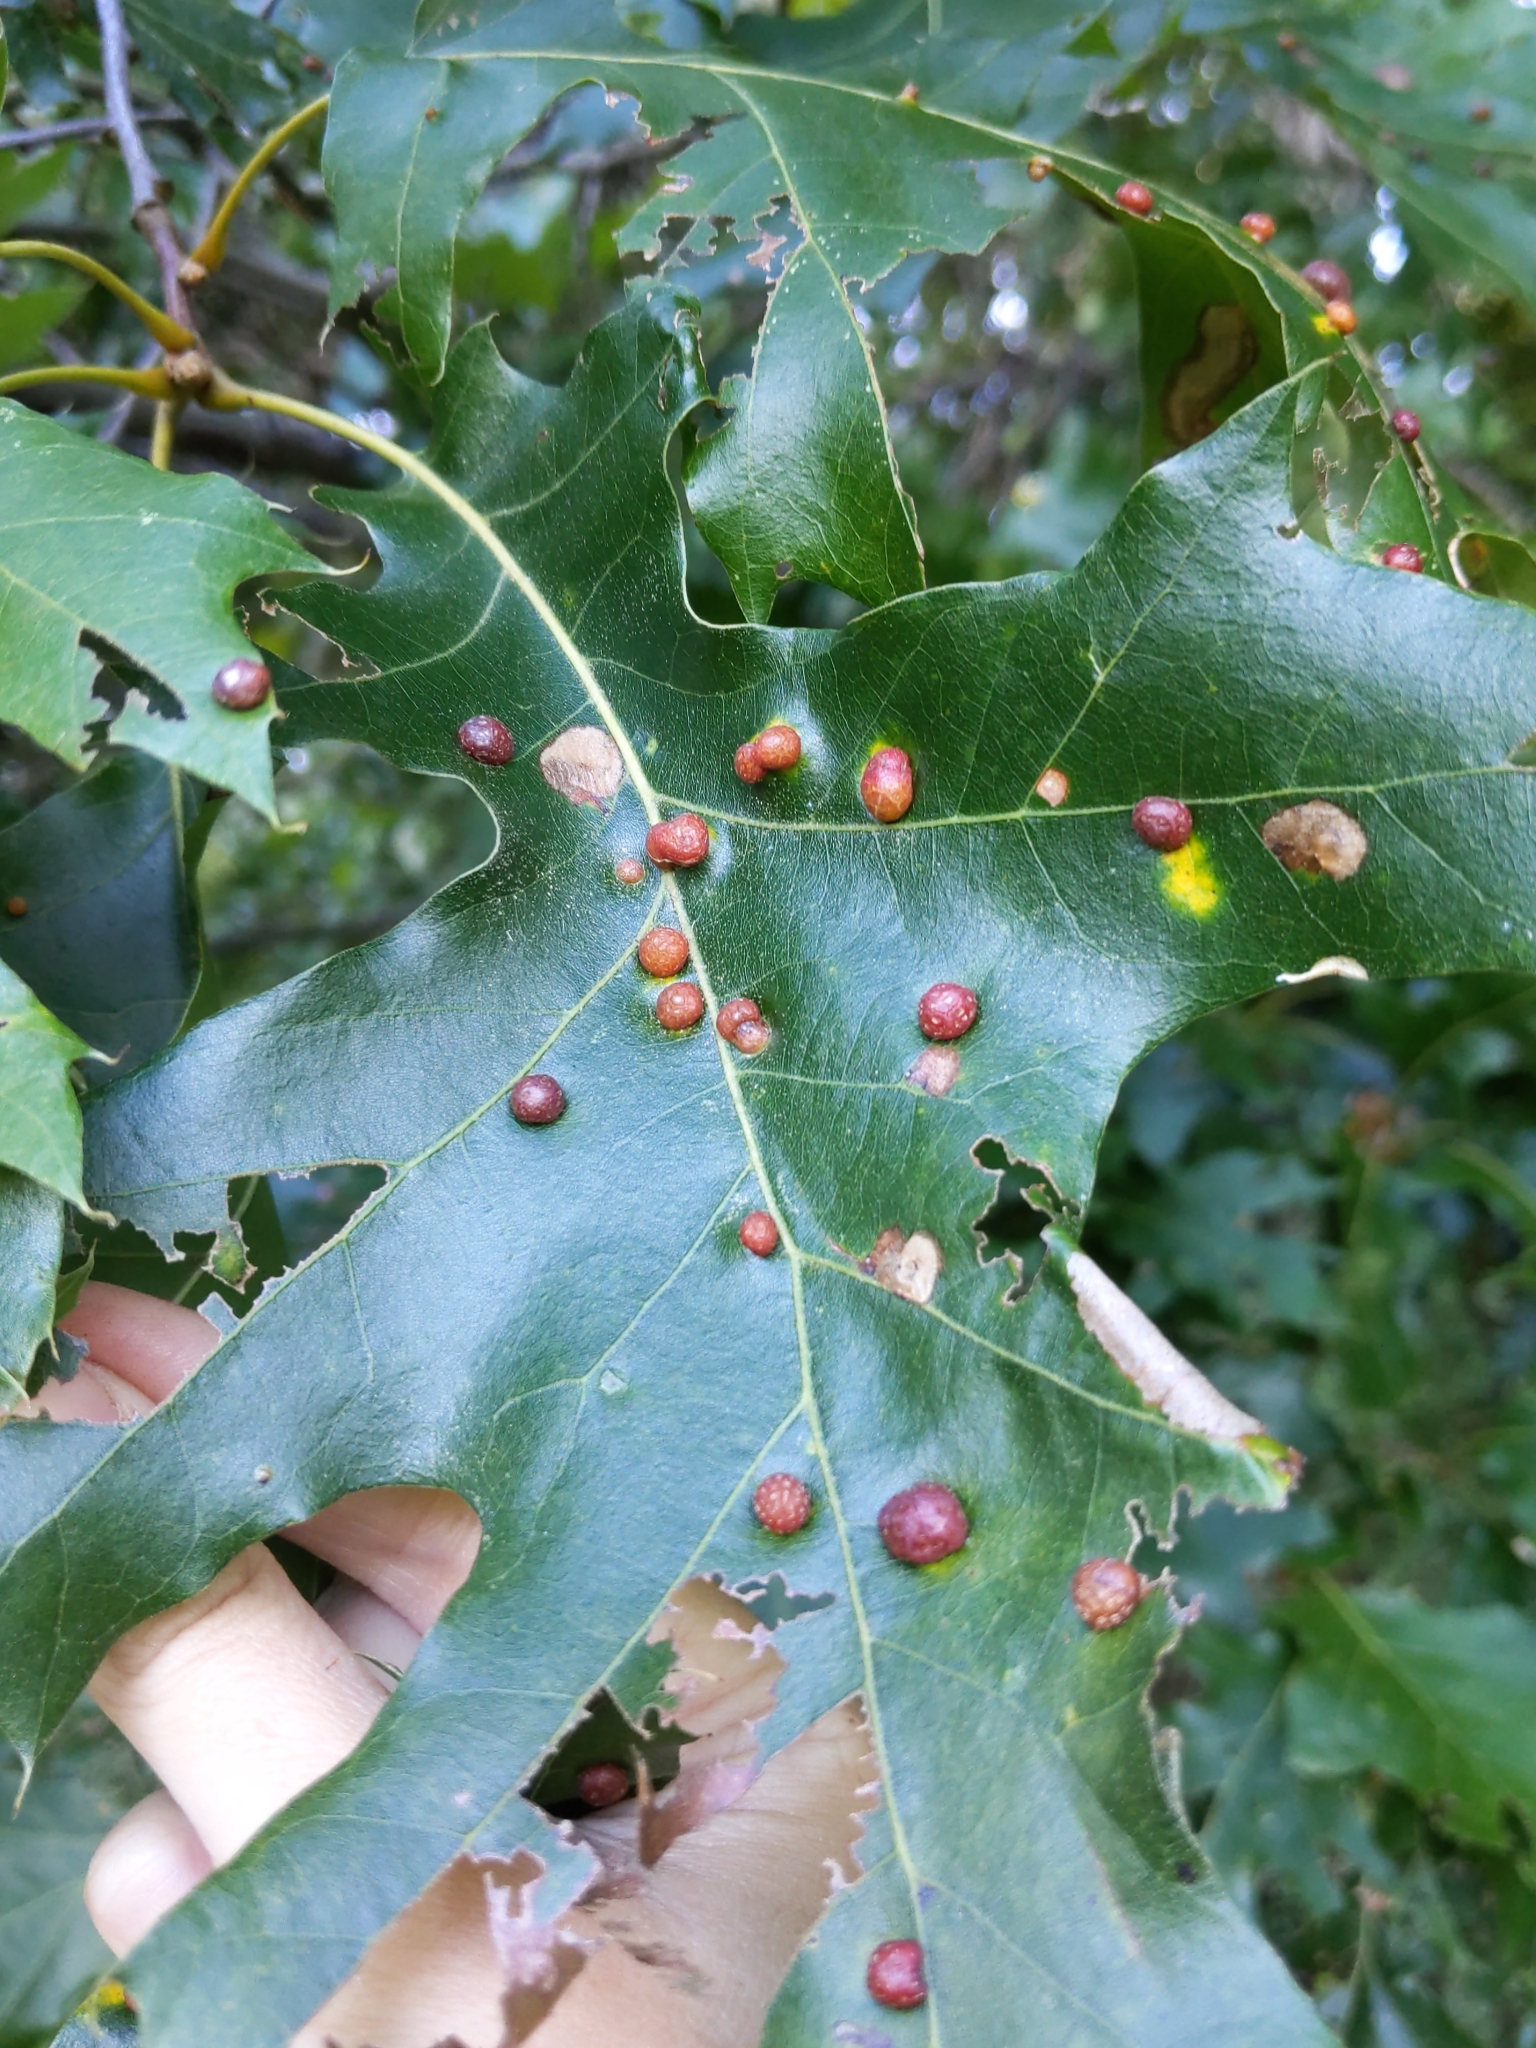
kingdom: Animalia
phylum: Arthropoda
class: Insecta
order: Diptera
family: Cecidomyiidae
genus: Polystepha
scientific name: Polystepha pilulae
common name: Oak leaf gall midge
